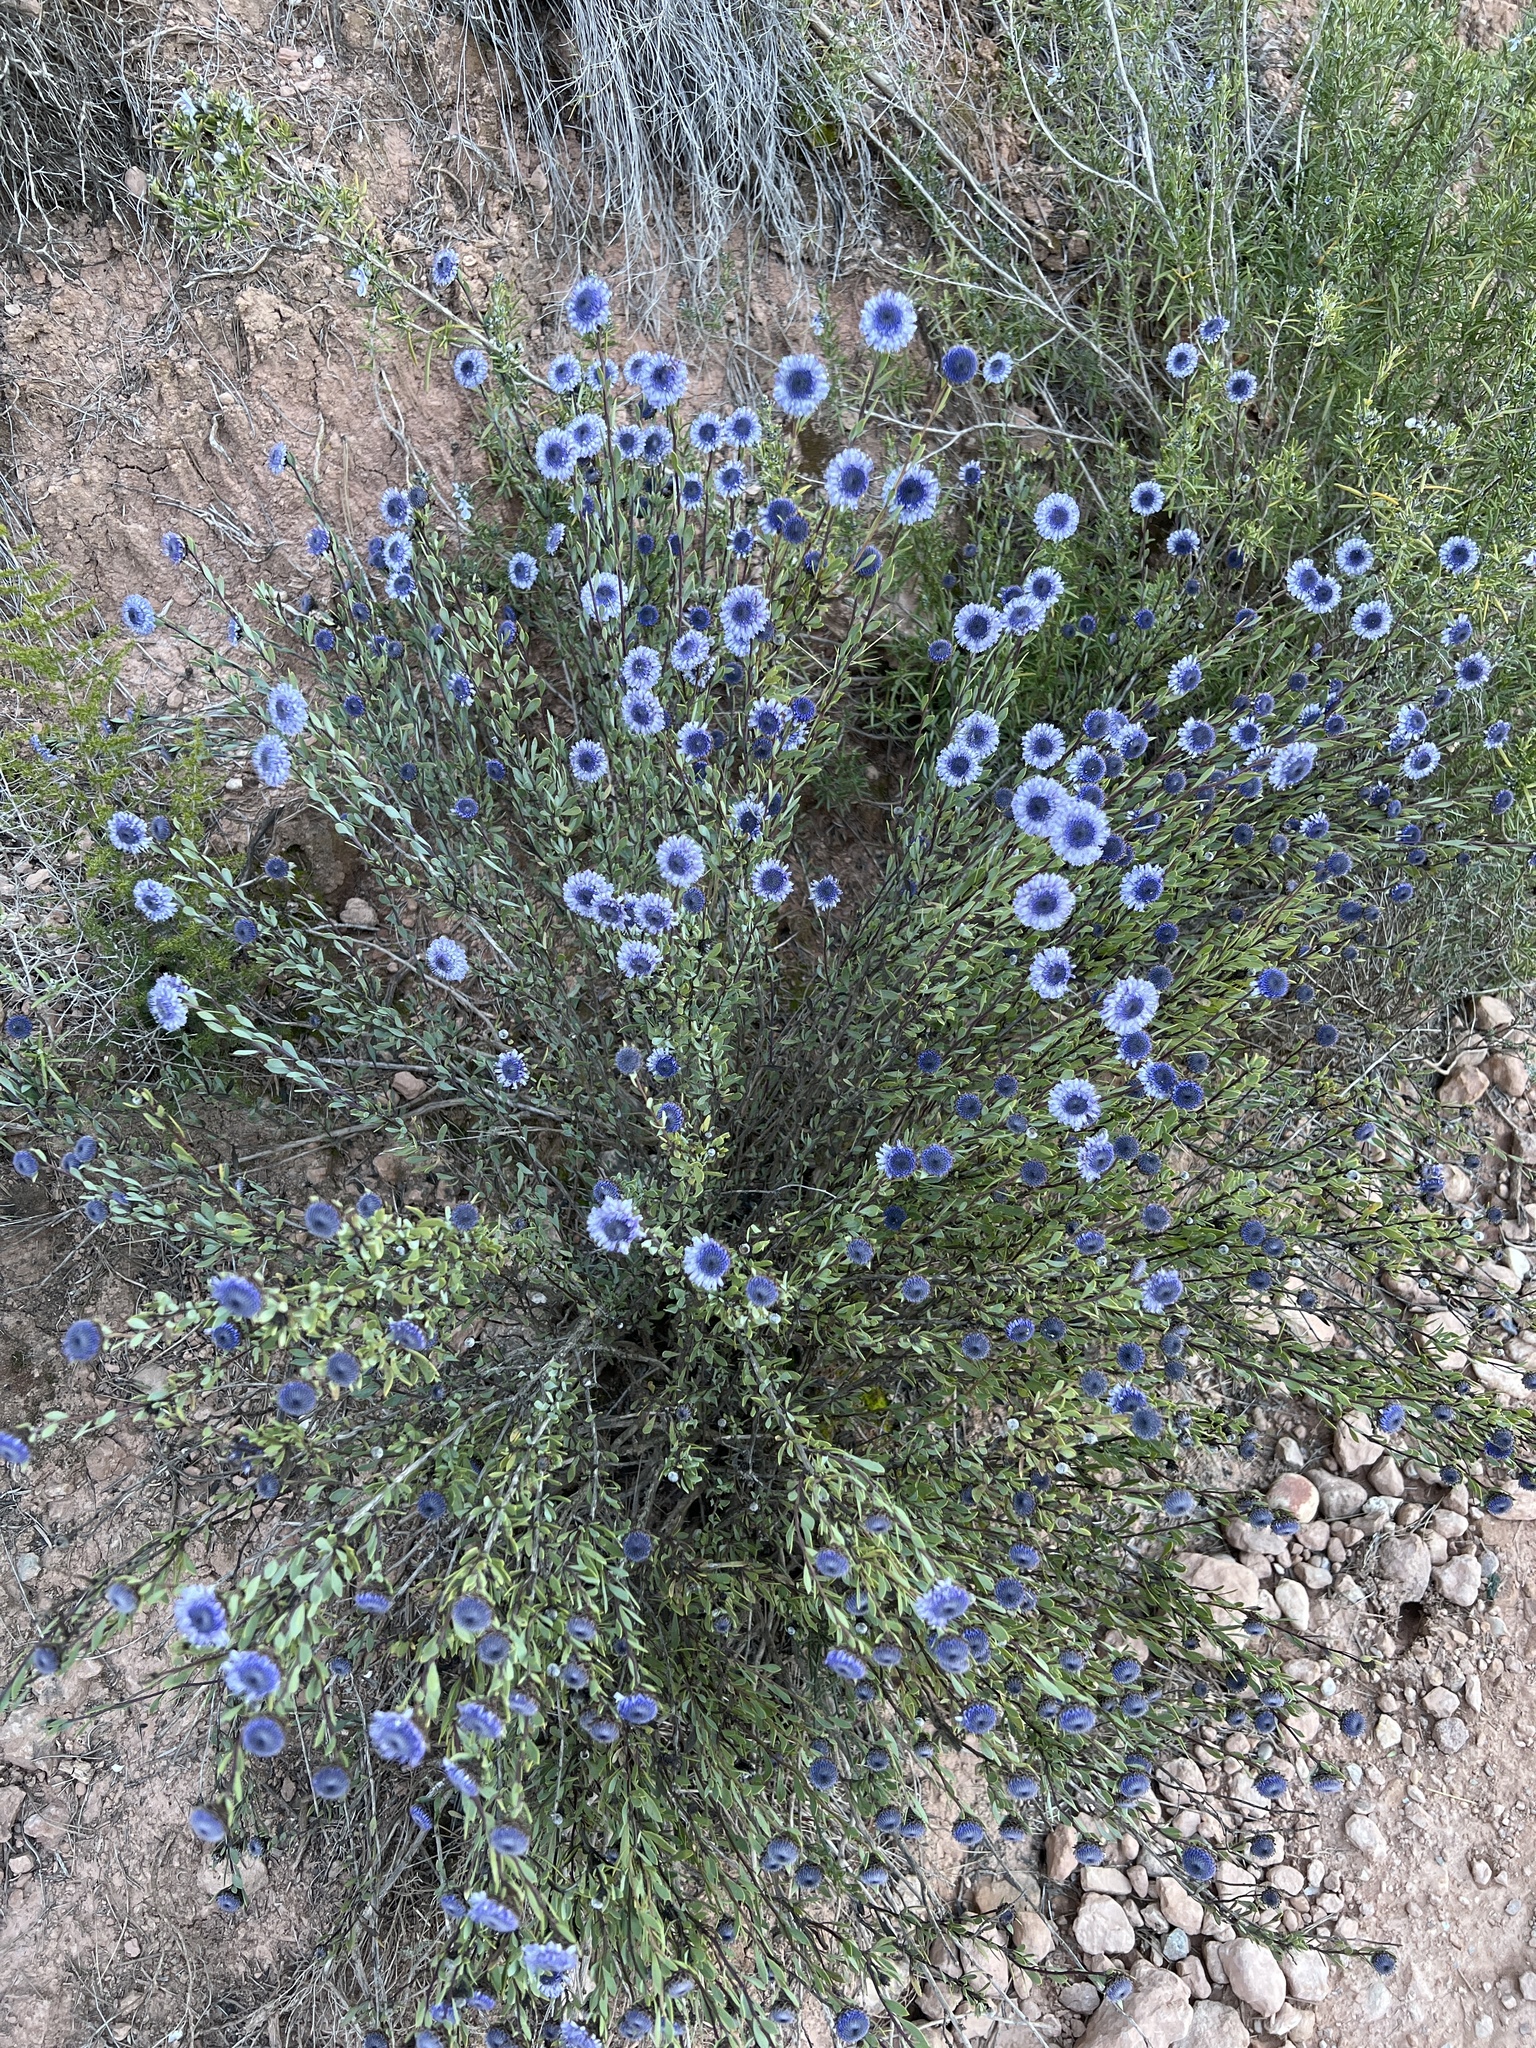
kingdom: Plantae
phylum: Tracheophyta
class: Magnoliopsida
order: Lamiales
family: Plantaginaceae
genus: Globularia
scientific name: Globularia alypum
